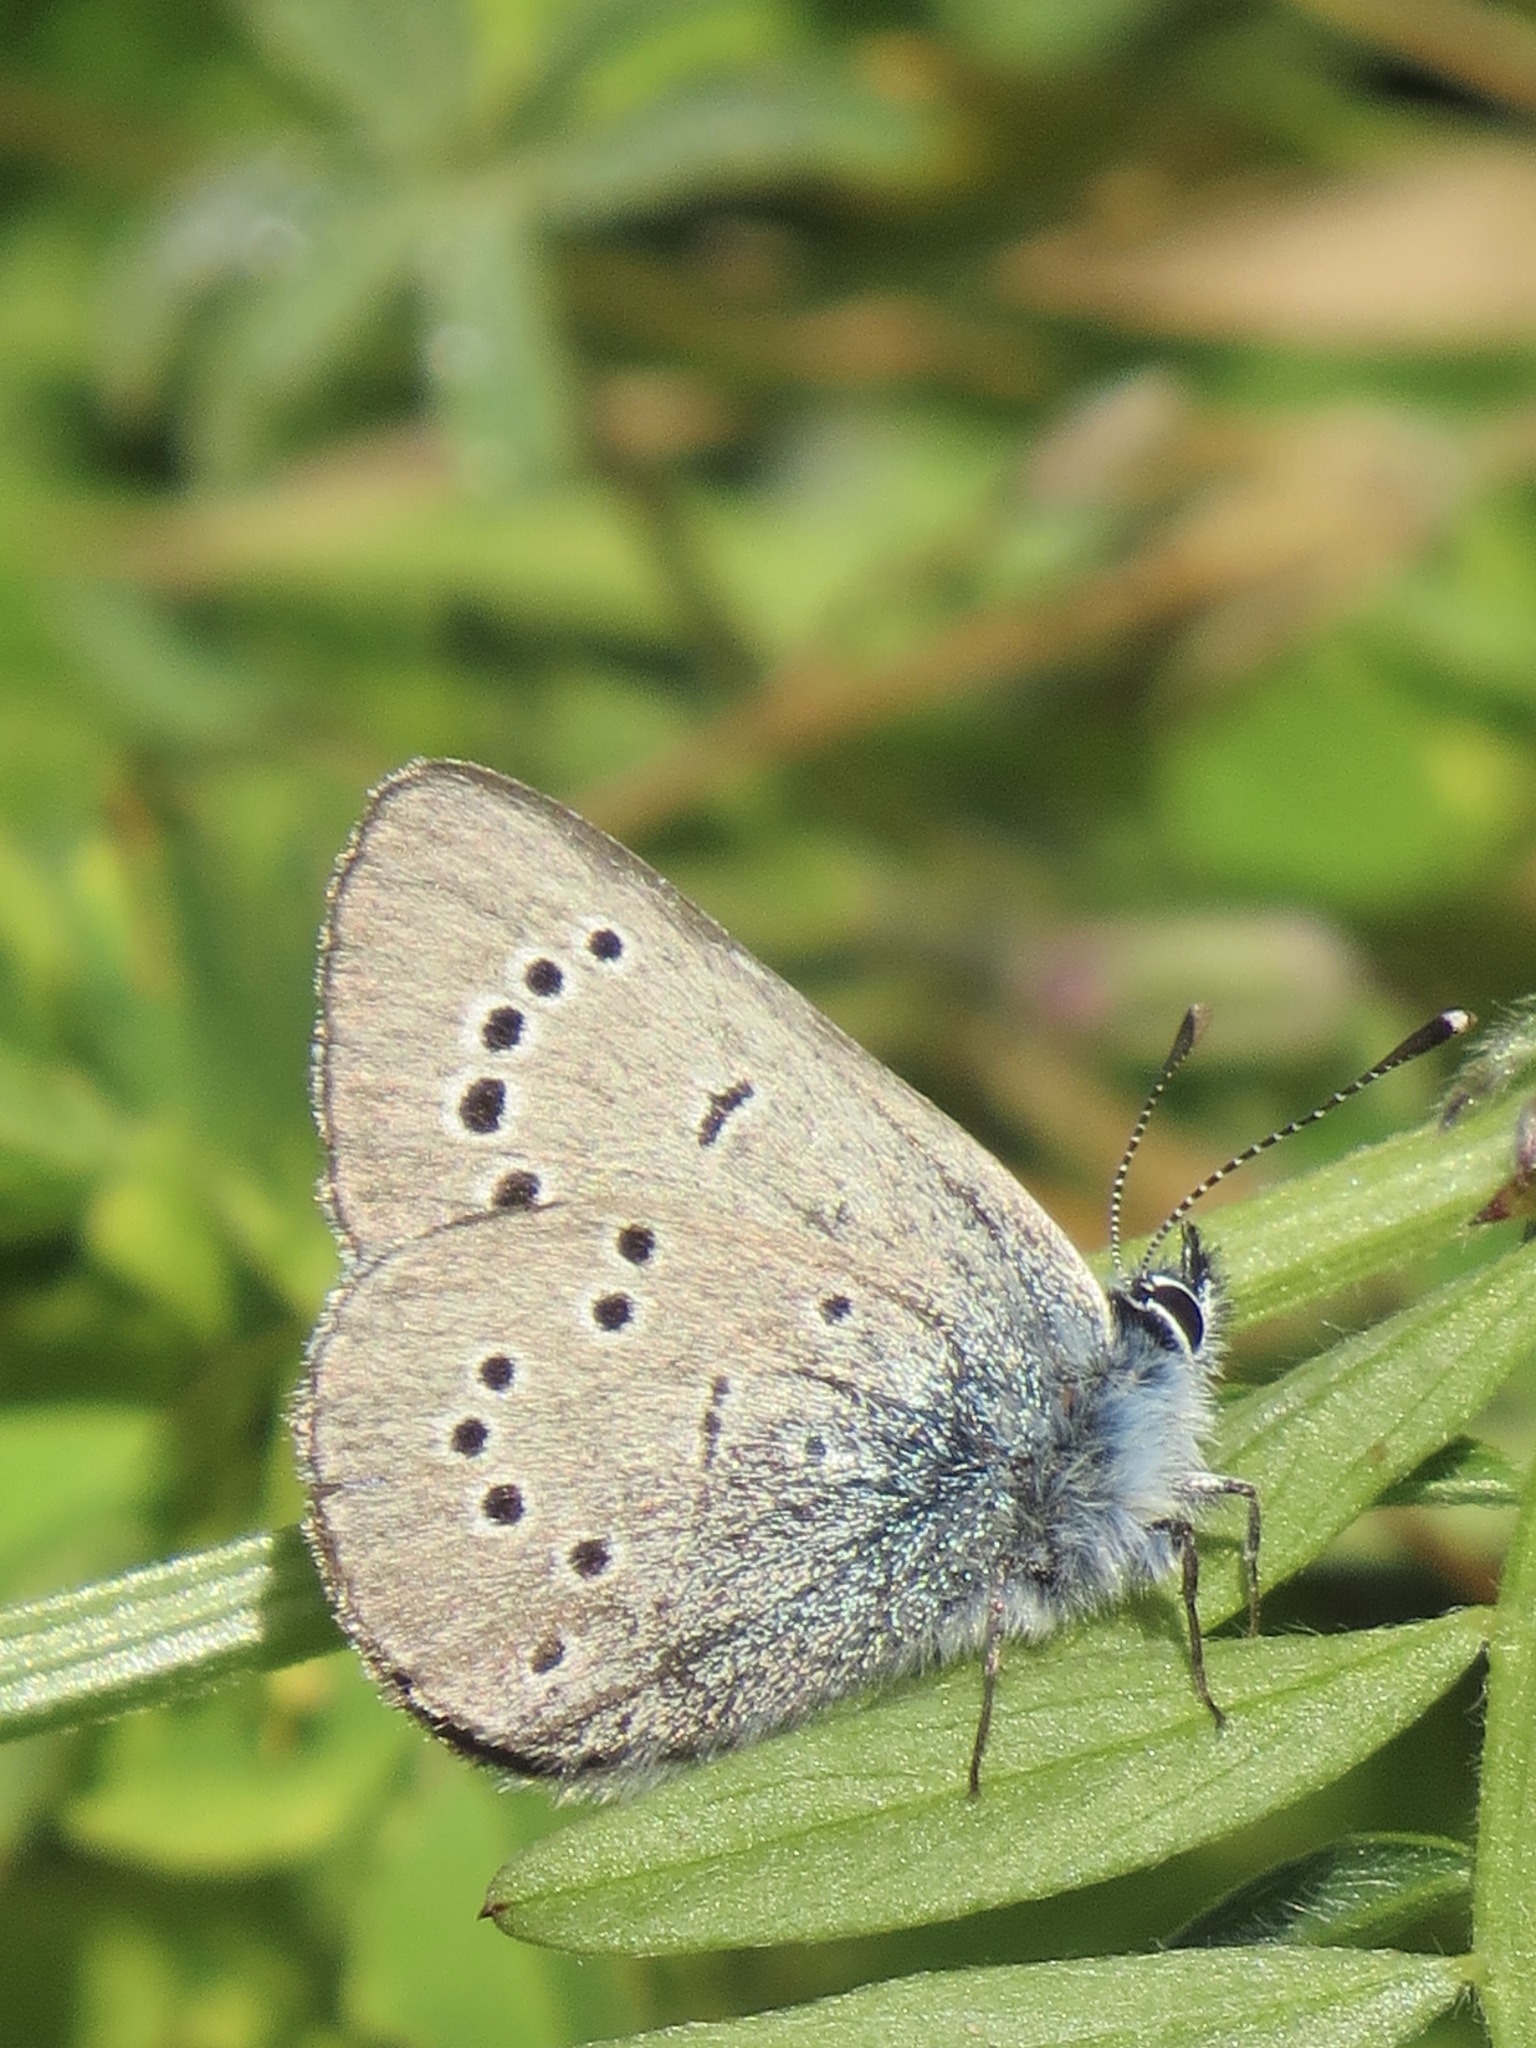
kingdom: Animalia
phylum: Arthropoda
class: Insecta
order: Lepidoptera
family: Lycaenidae
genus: Glaucopsyche
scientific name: Glaucopsyche lygdamus
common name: Silvery blue
